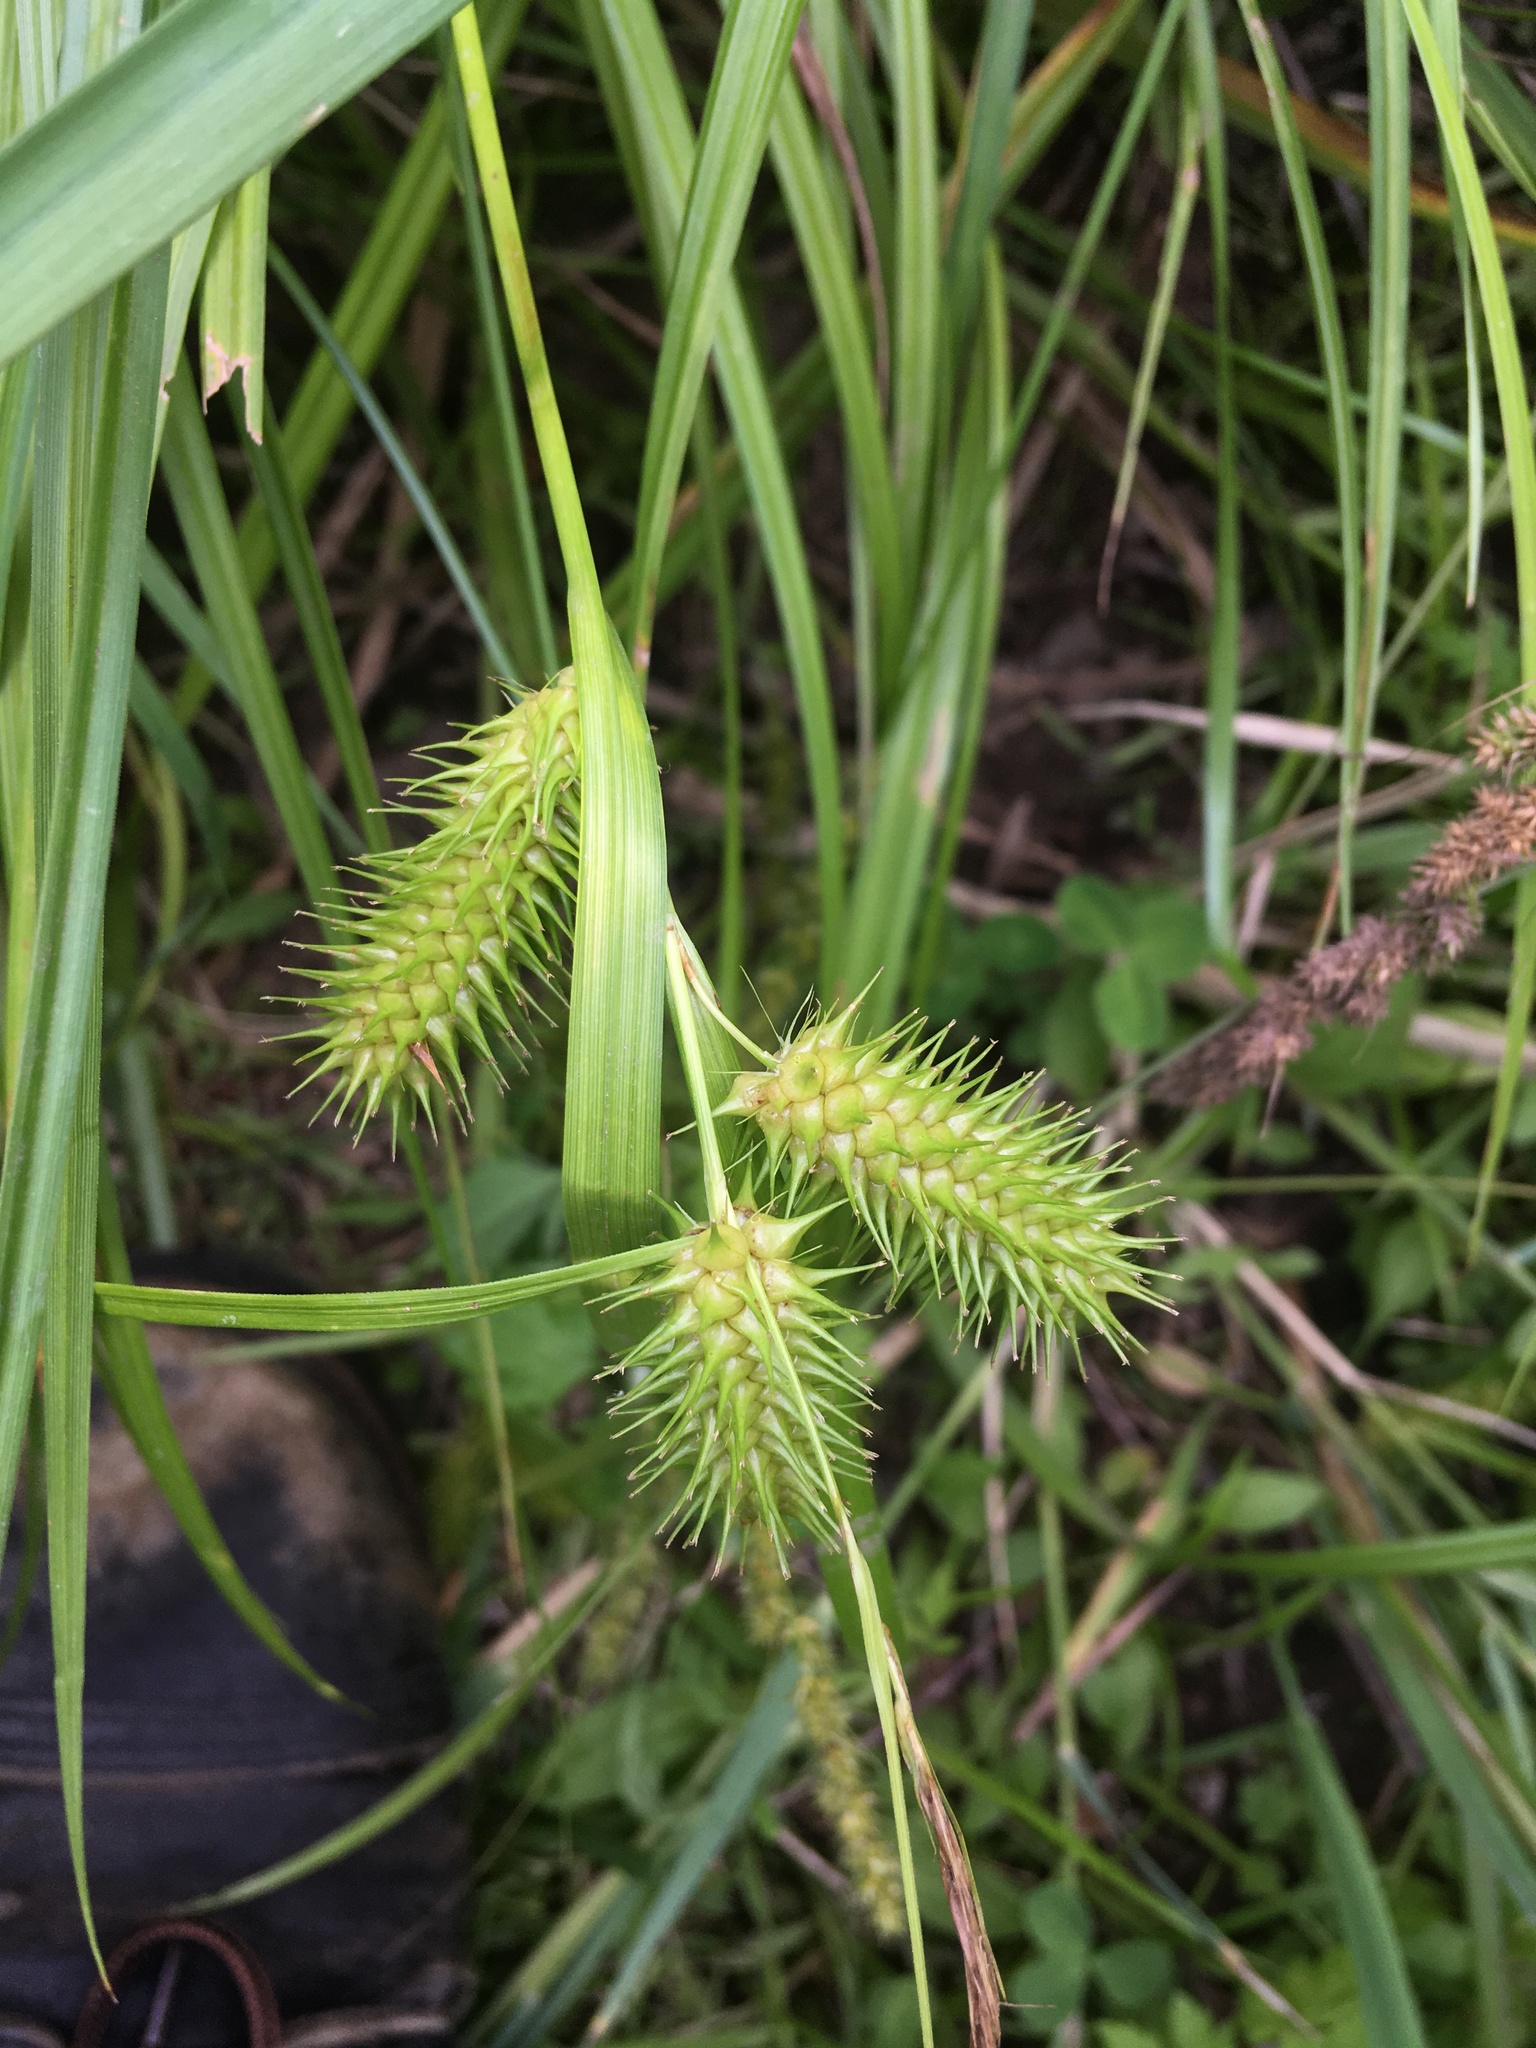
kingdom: Plantae
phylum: Tracheophyta
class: Liliopsida
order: Poales
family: Cyperaceae
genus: Carex
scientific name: Carex lurida
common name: Sallow sedge
